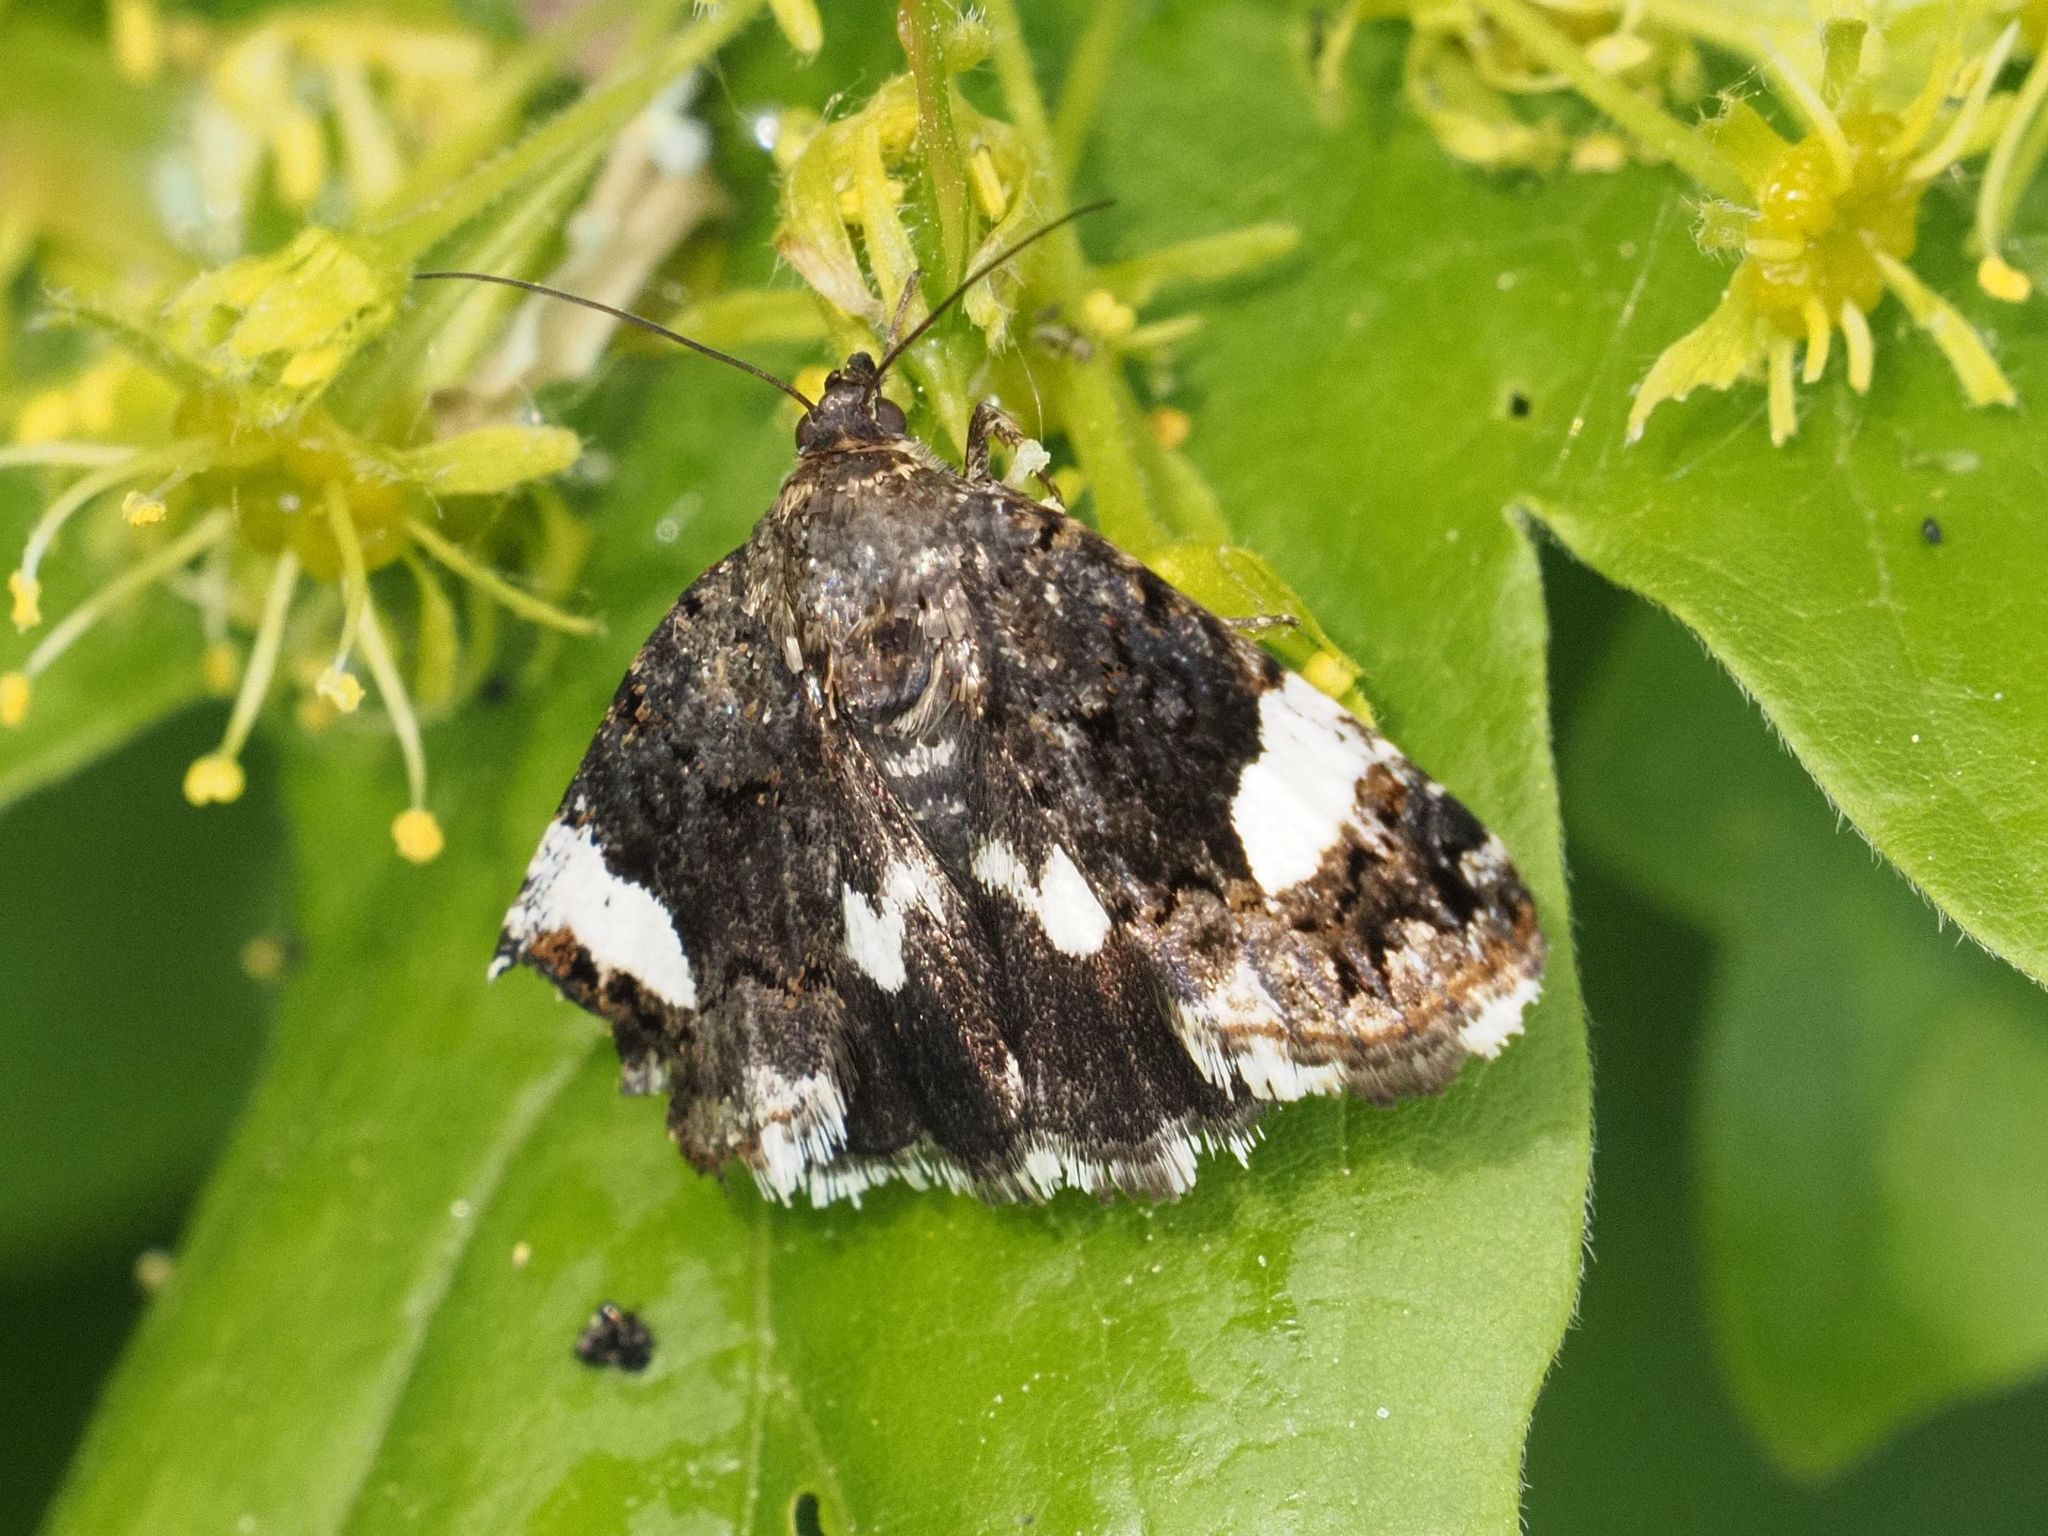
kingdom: Animalia
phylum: Arthropoda
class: Insecta
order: Lepidoptera
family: Erebidae
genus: Tyta
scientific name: Tyta luctuosa
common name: Four-spotted
